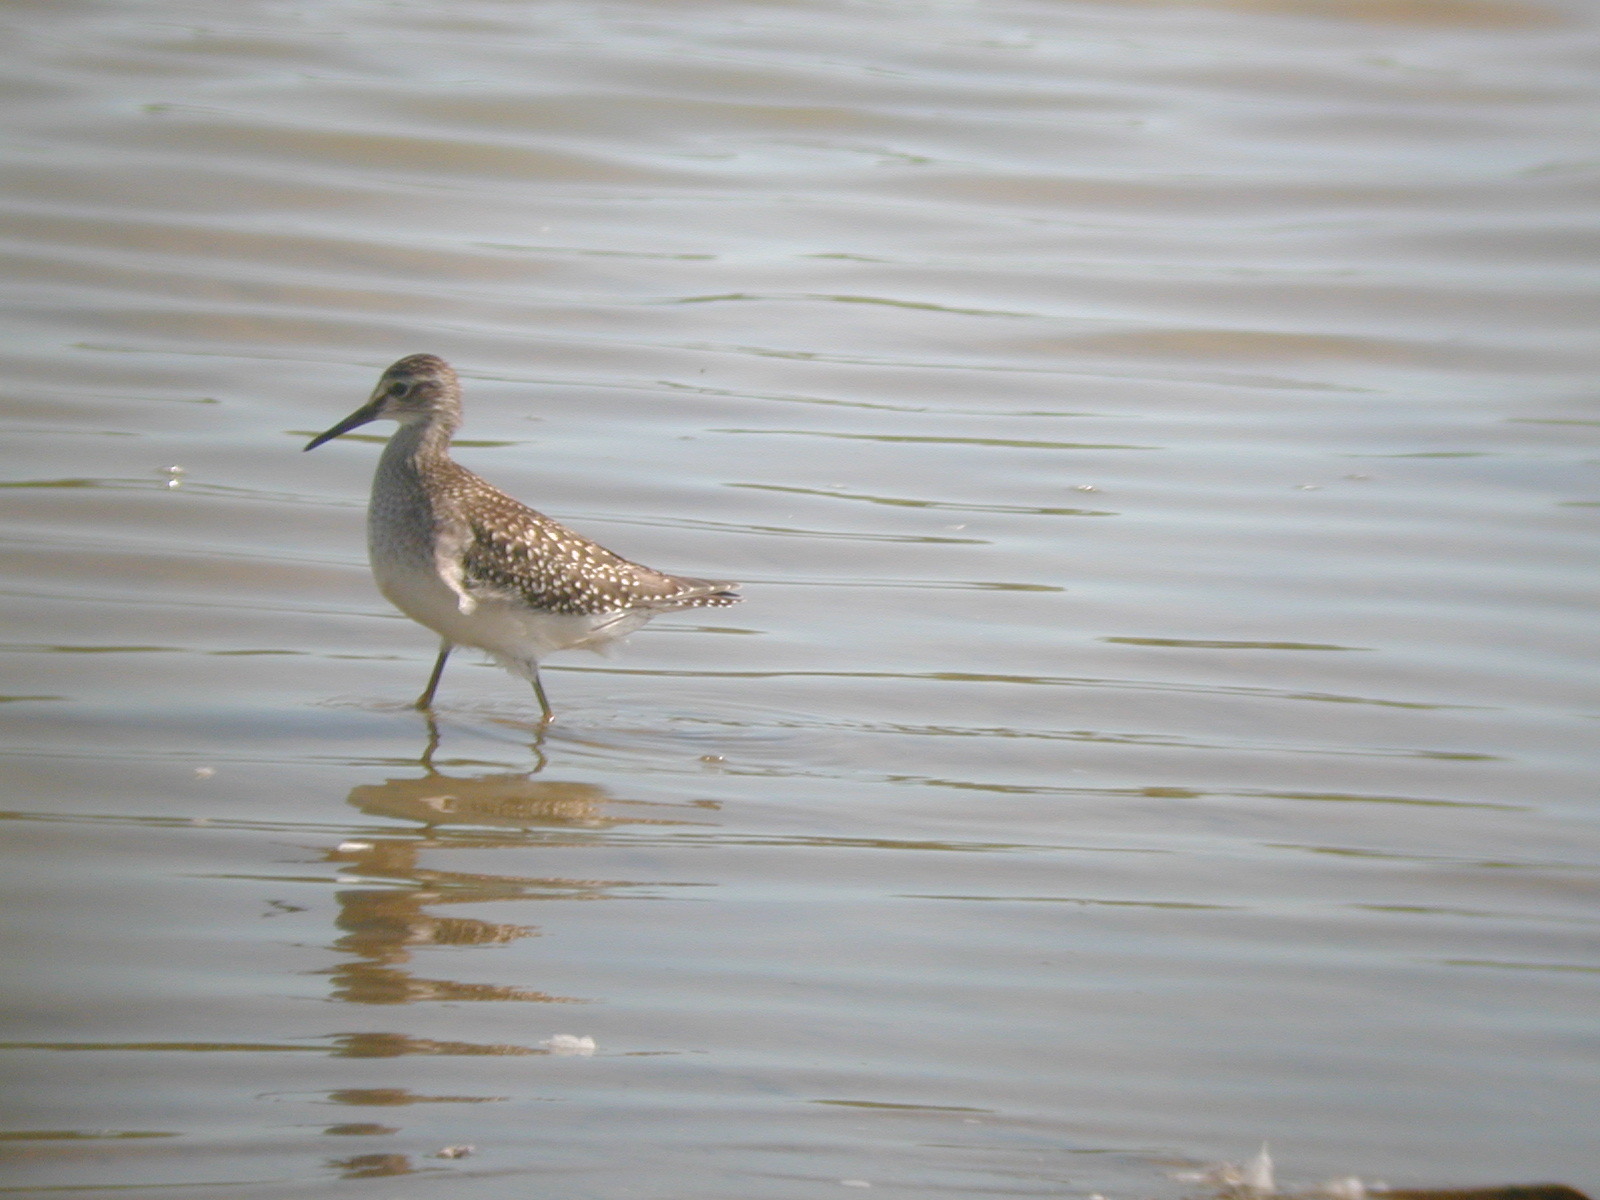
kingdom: Animalia
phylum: Chordata
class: Aves
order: Charadriiformes
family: Scolopacidae
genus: Tringa
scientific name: Tringa glareola
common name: Wood sandpiper
